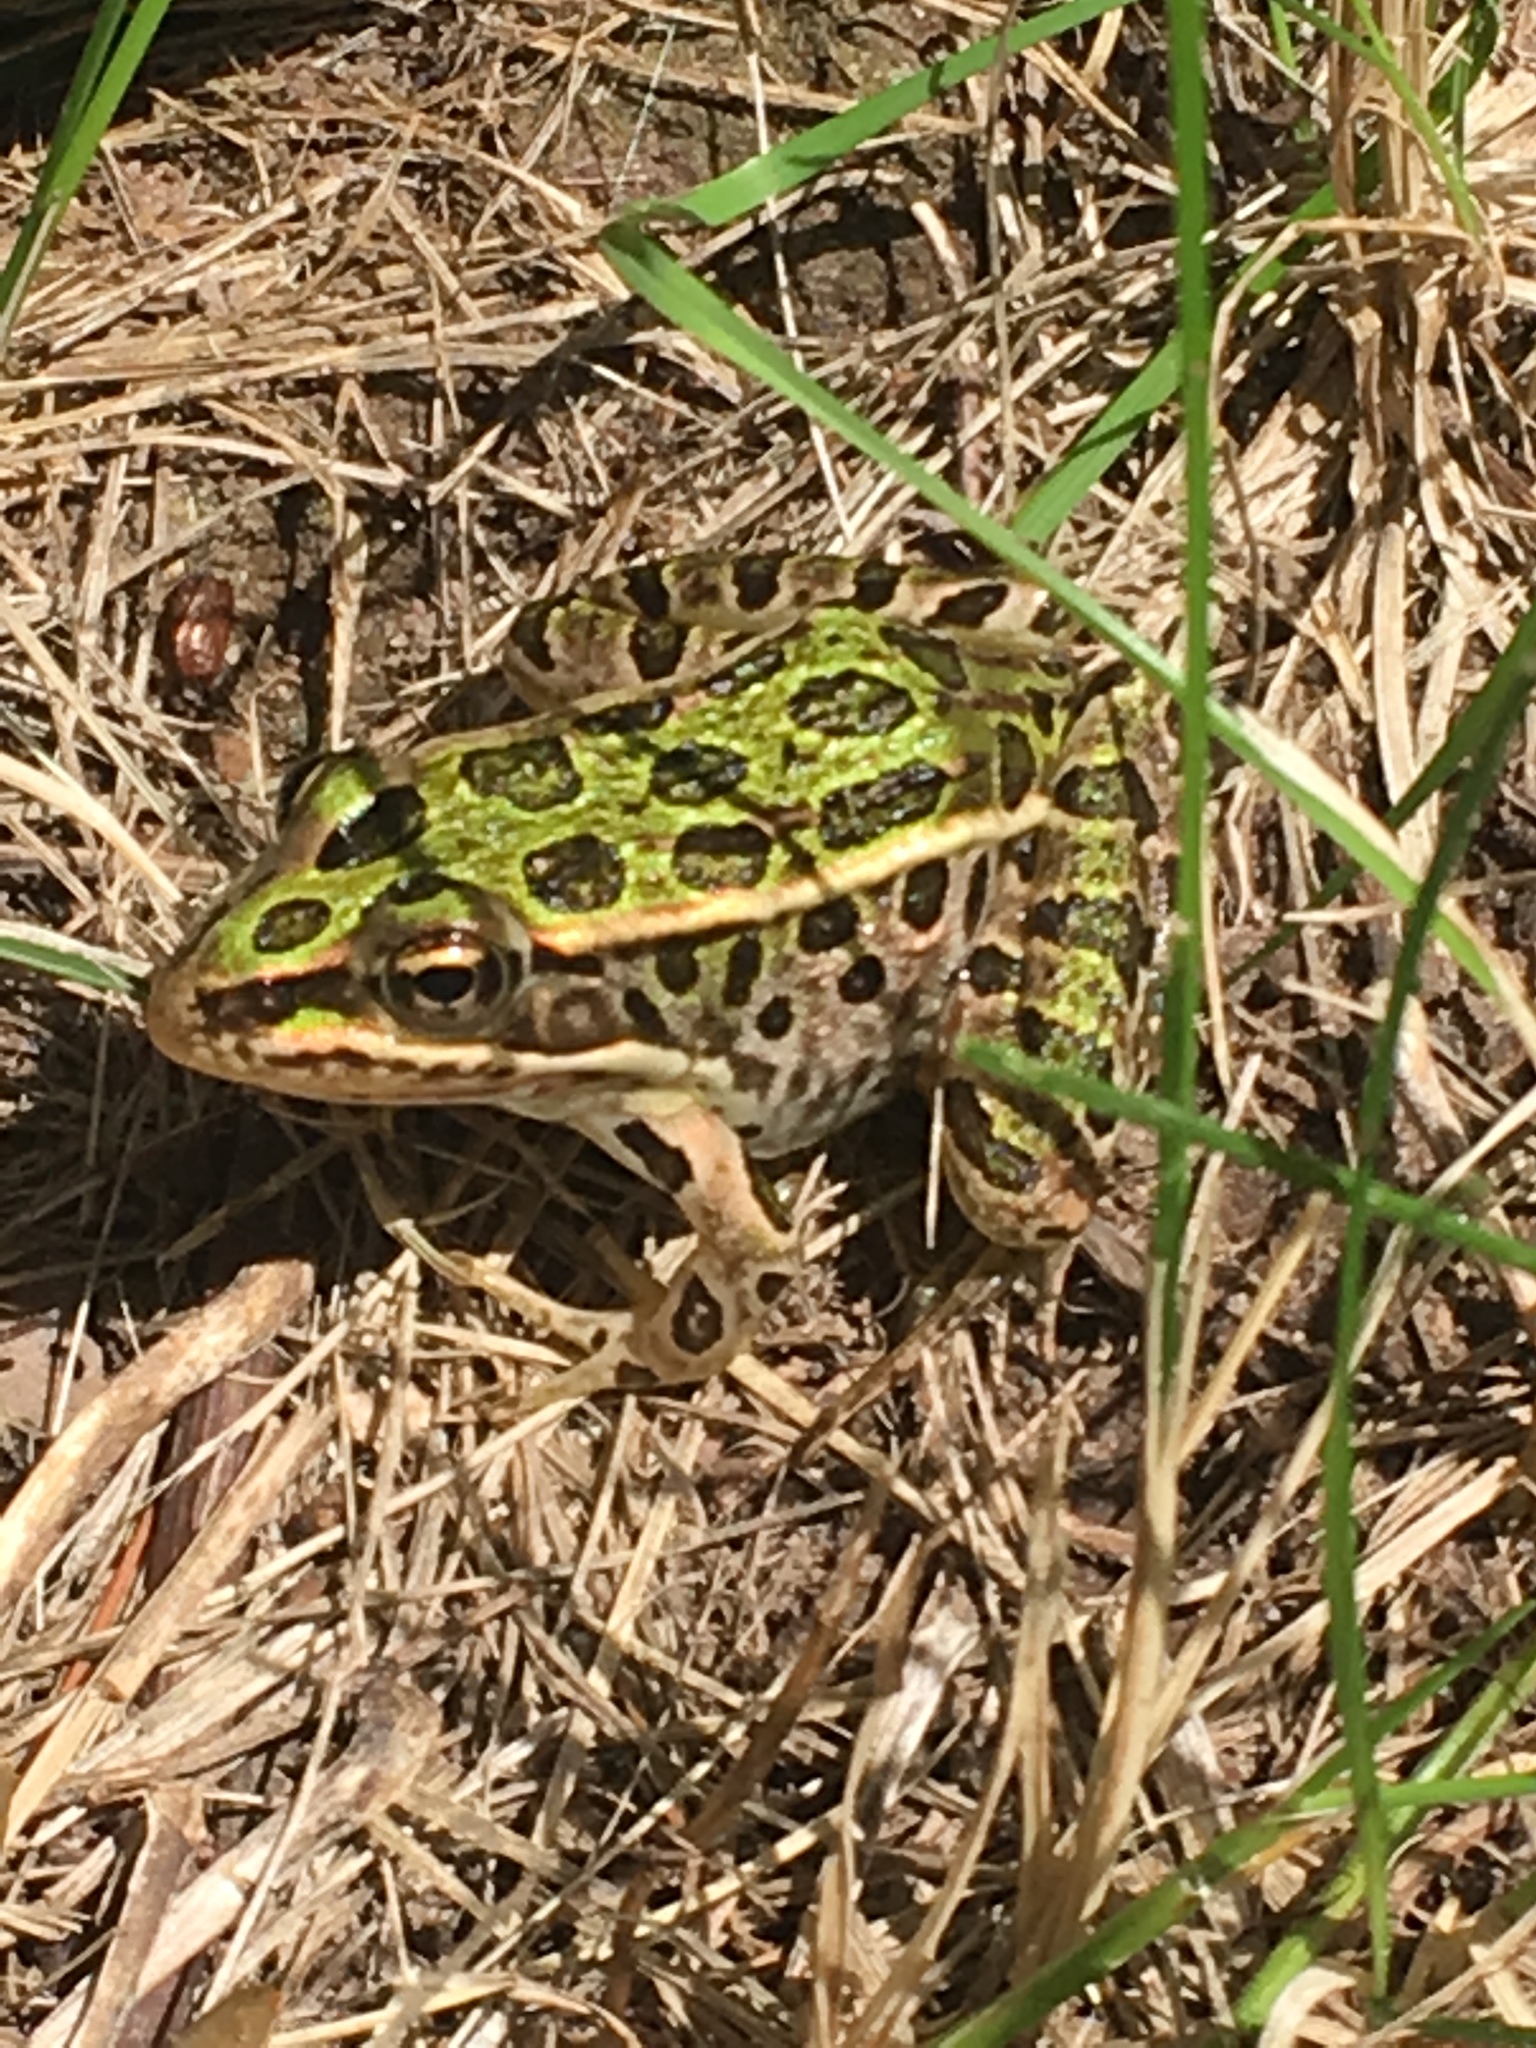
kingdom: Animalia
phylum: Chordata
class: Amphibia
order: Anura
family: Ranidae
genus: Lithobates
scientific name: Lithobates pipiens
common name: Northern leopard frog
